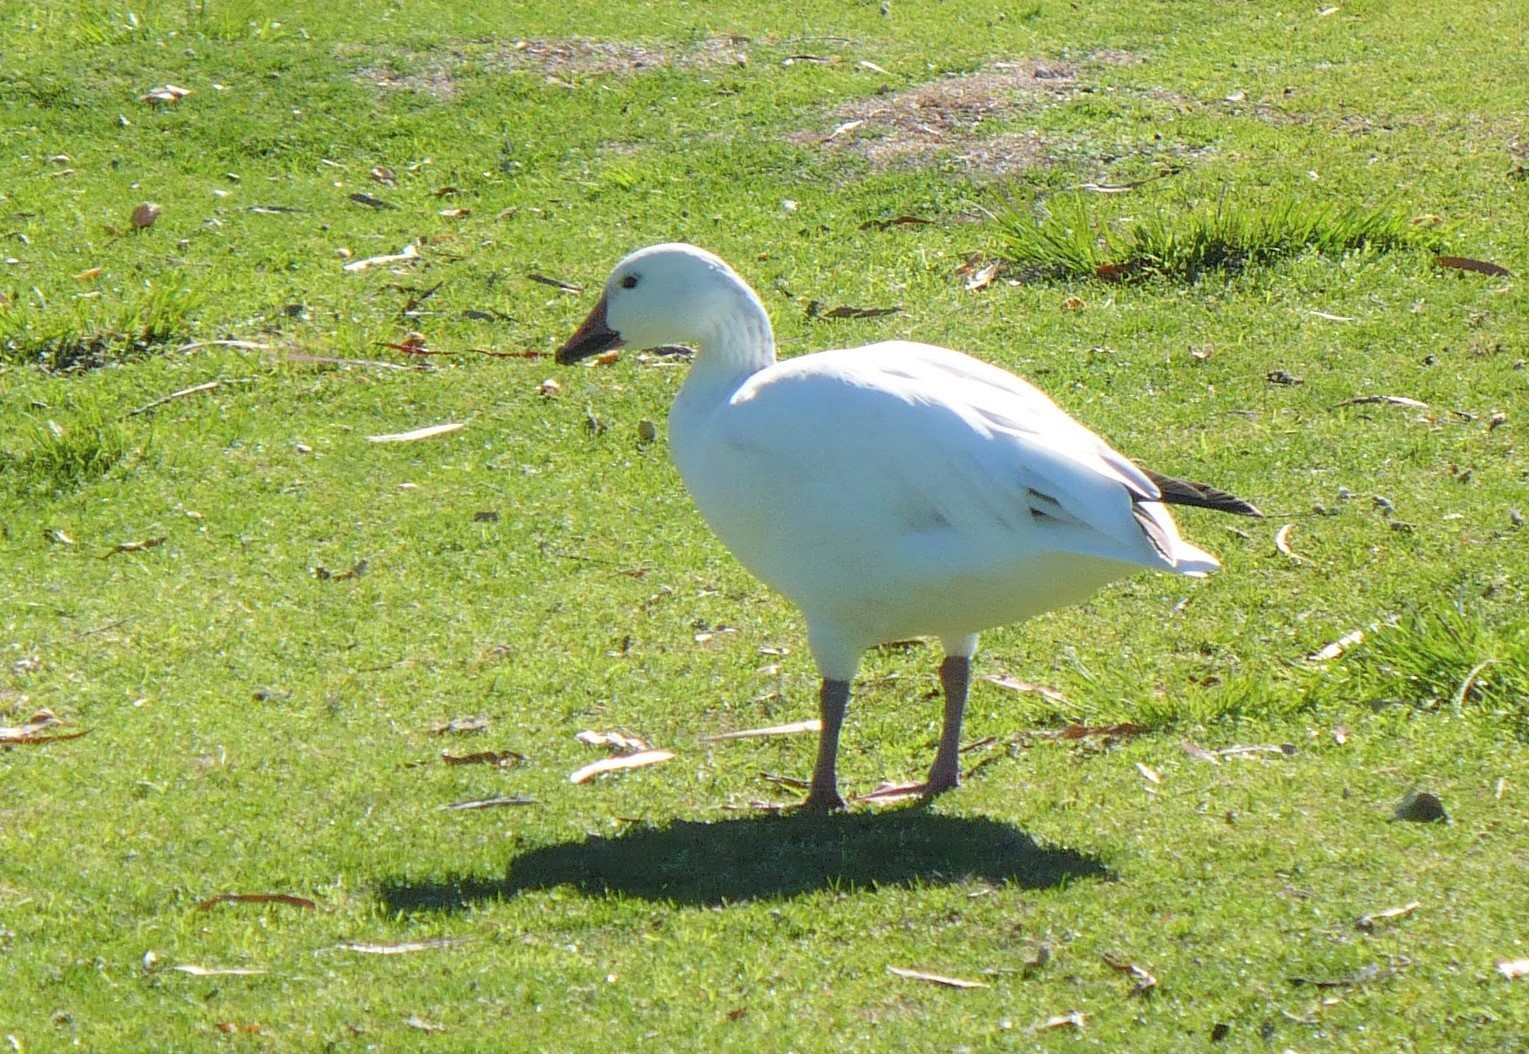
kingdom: Animalia
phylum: Chordata
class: Aves
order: Anseriformes
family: Anatidae
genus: Anser
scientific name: Anser caerulescens
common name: Snow goose
